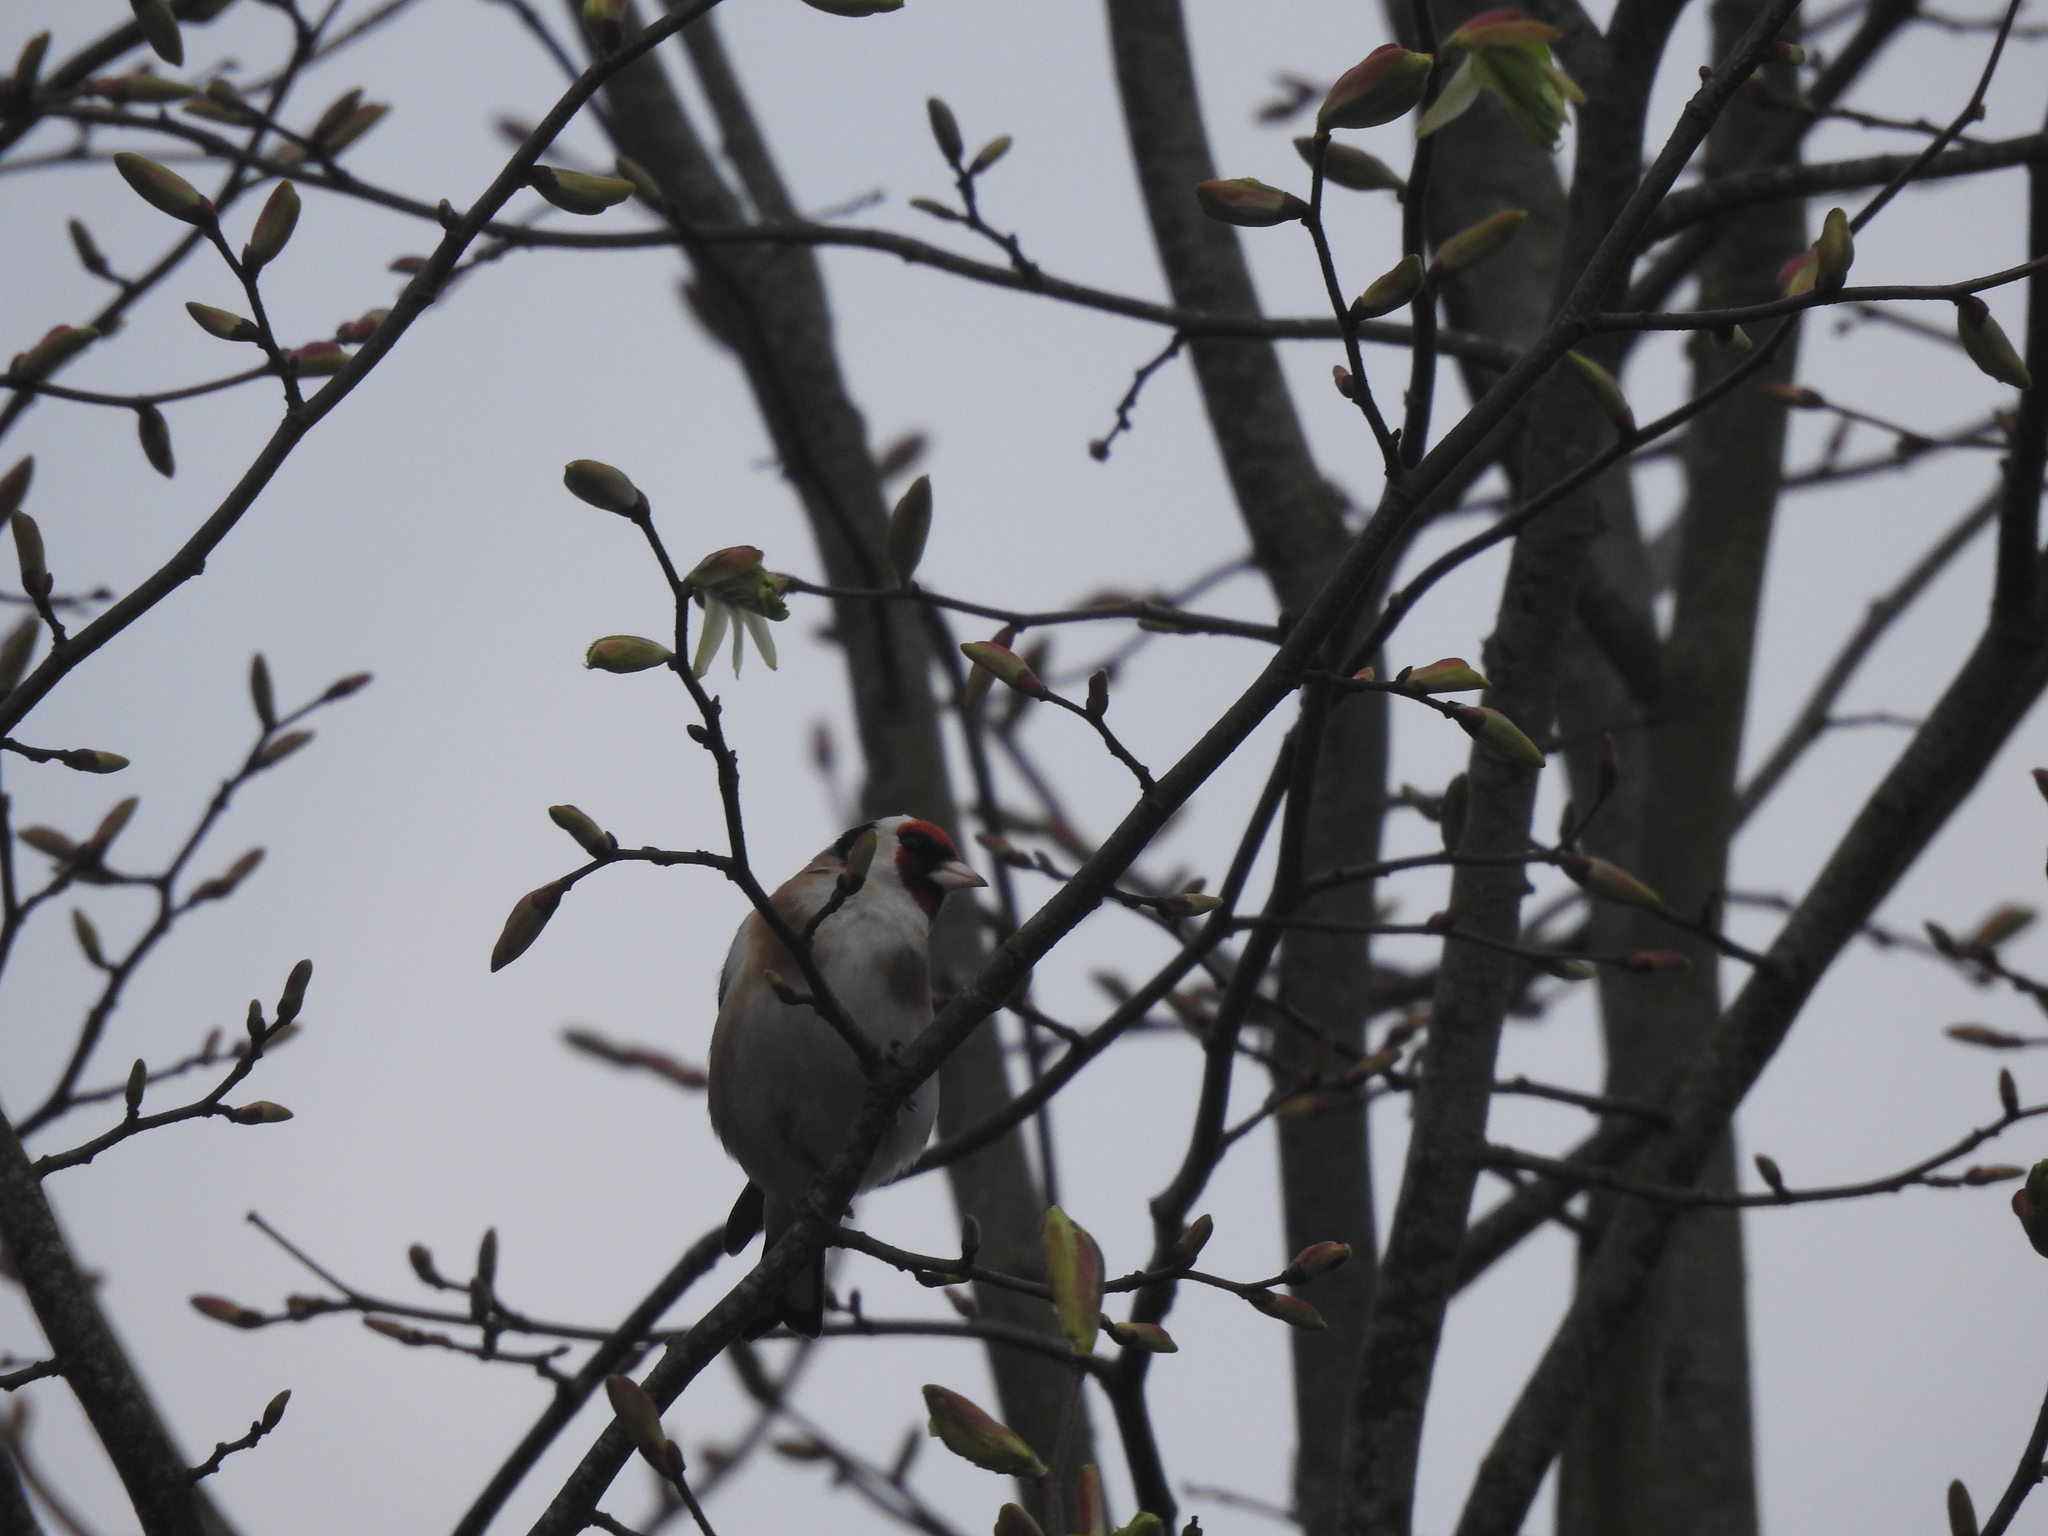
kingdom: Animalia
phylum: Chordata
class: Aves
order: Passeriformes
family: Fringillidae
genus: Carduelis
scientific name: Carduelis carduelis
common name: European goldfinch
